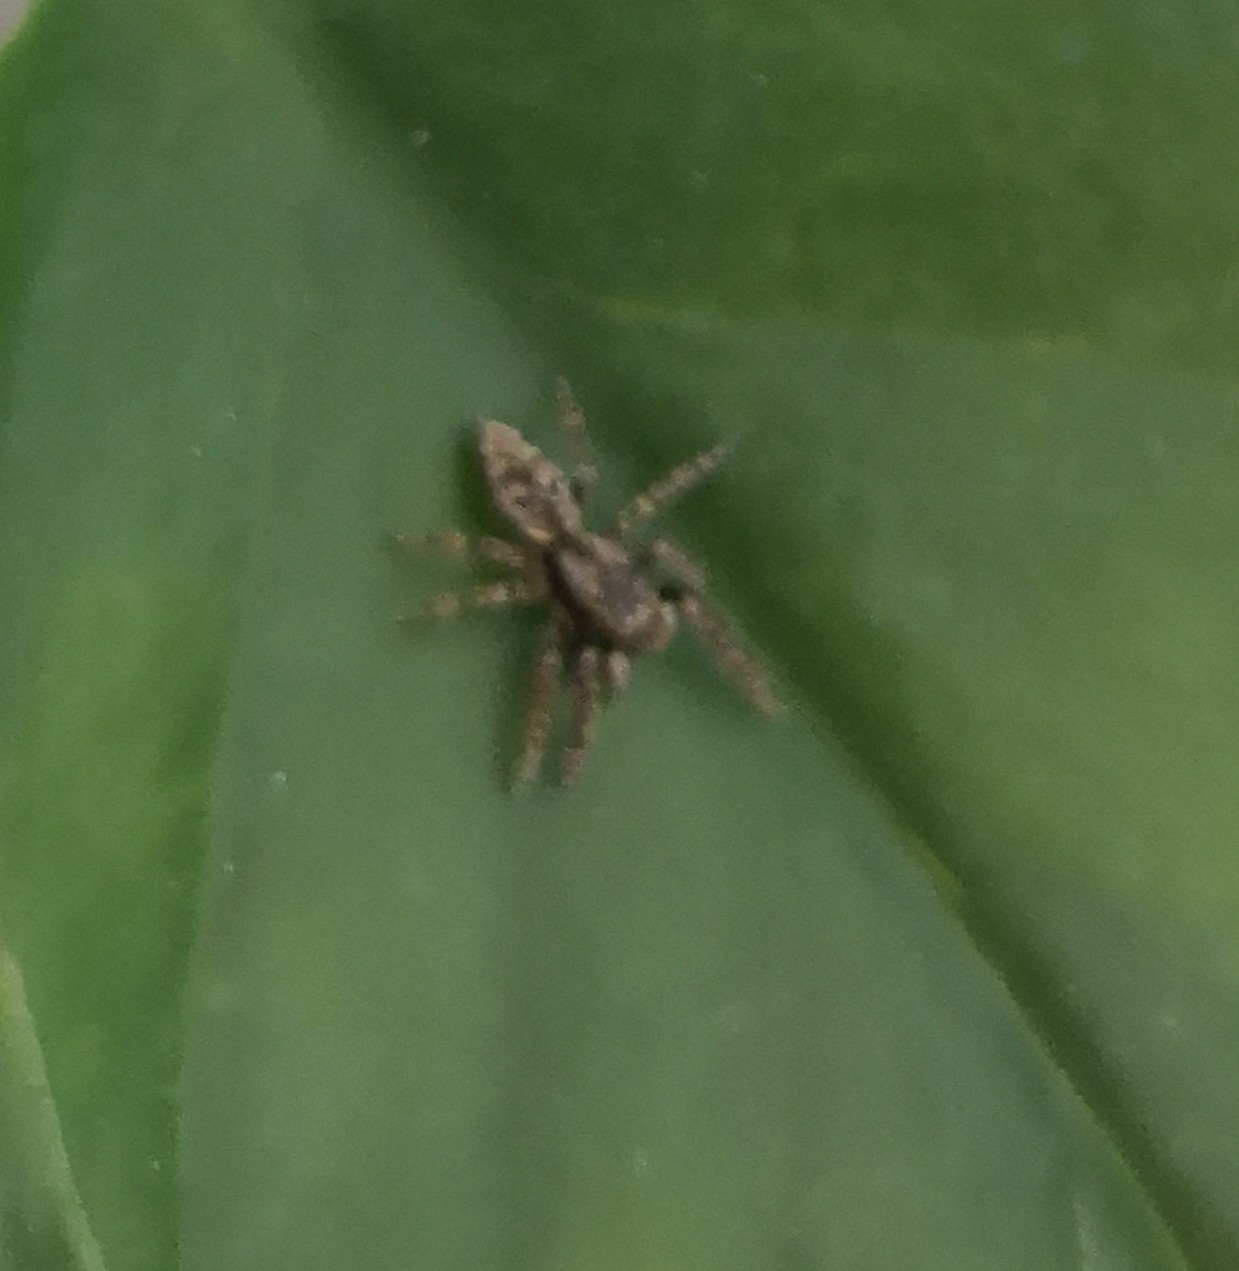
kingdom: Animalia
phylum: Arthropoda
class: Arachnida
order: Araneae
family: Salticidae
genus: Marpissa
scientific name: Marpissa muscosa
